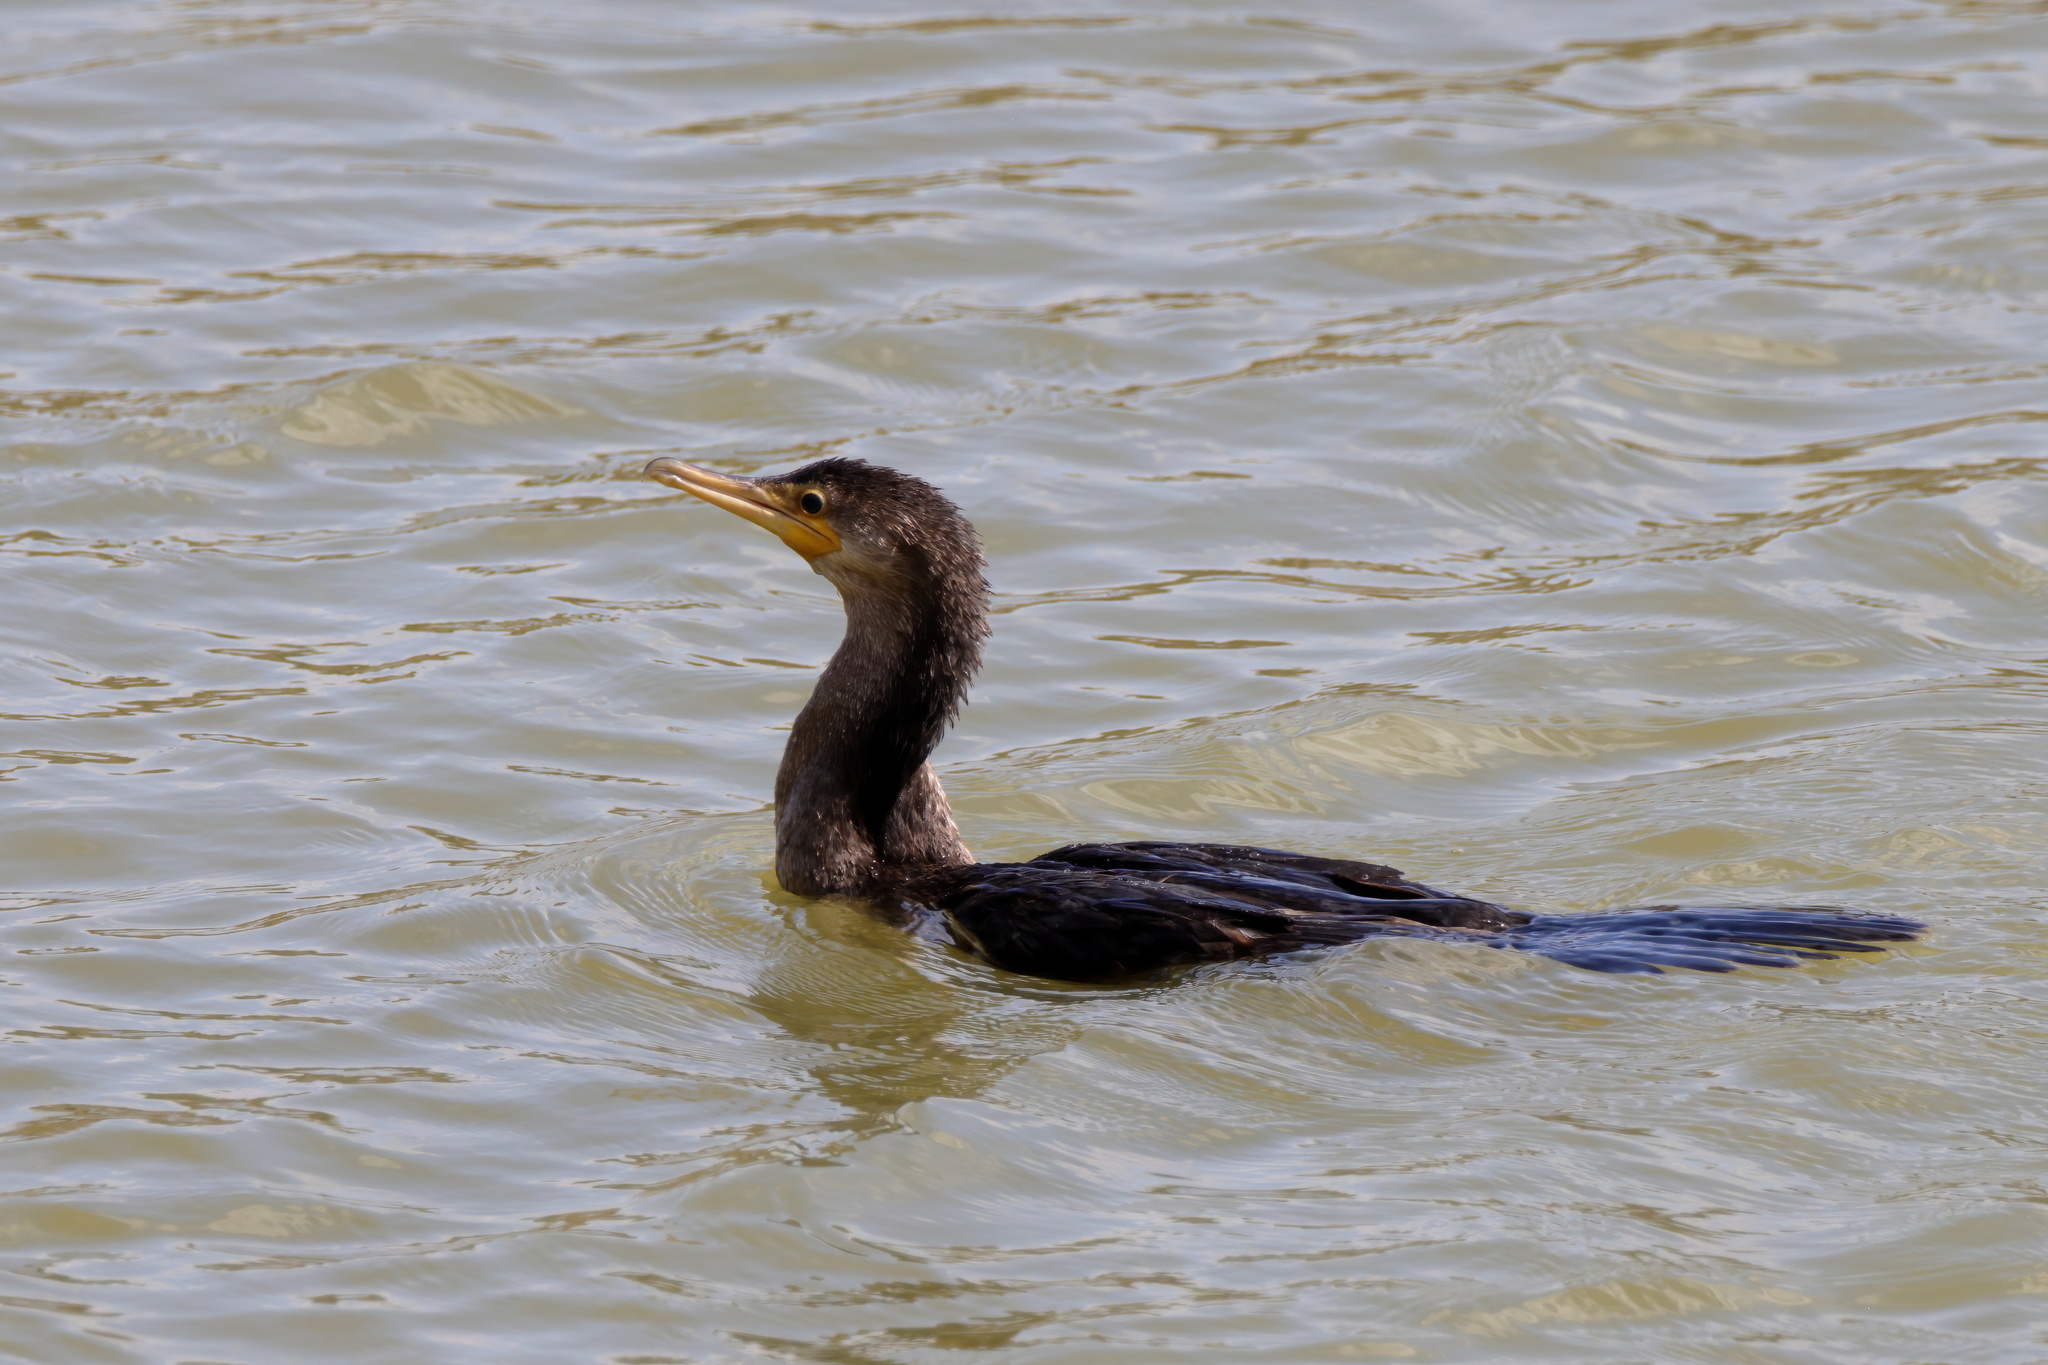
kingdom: Animalia
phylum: Chordata
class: Aves
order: Suliformes
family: Phalacrocoracidae
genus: Phalacrocorax
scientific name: Phalacrocorax auritus
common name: Double-crested cormorant
